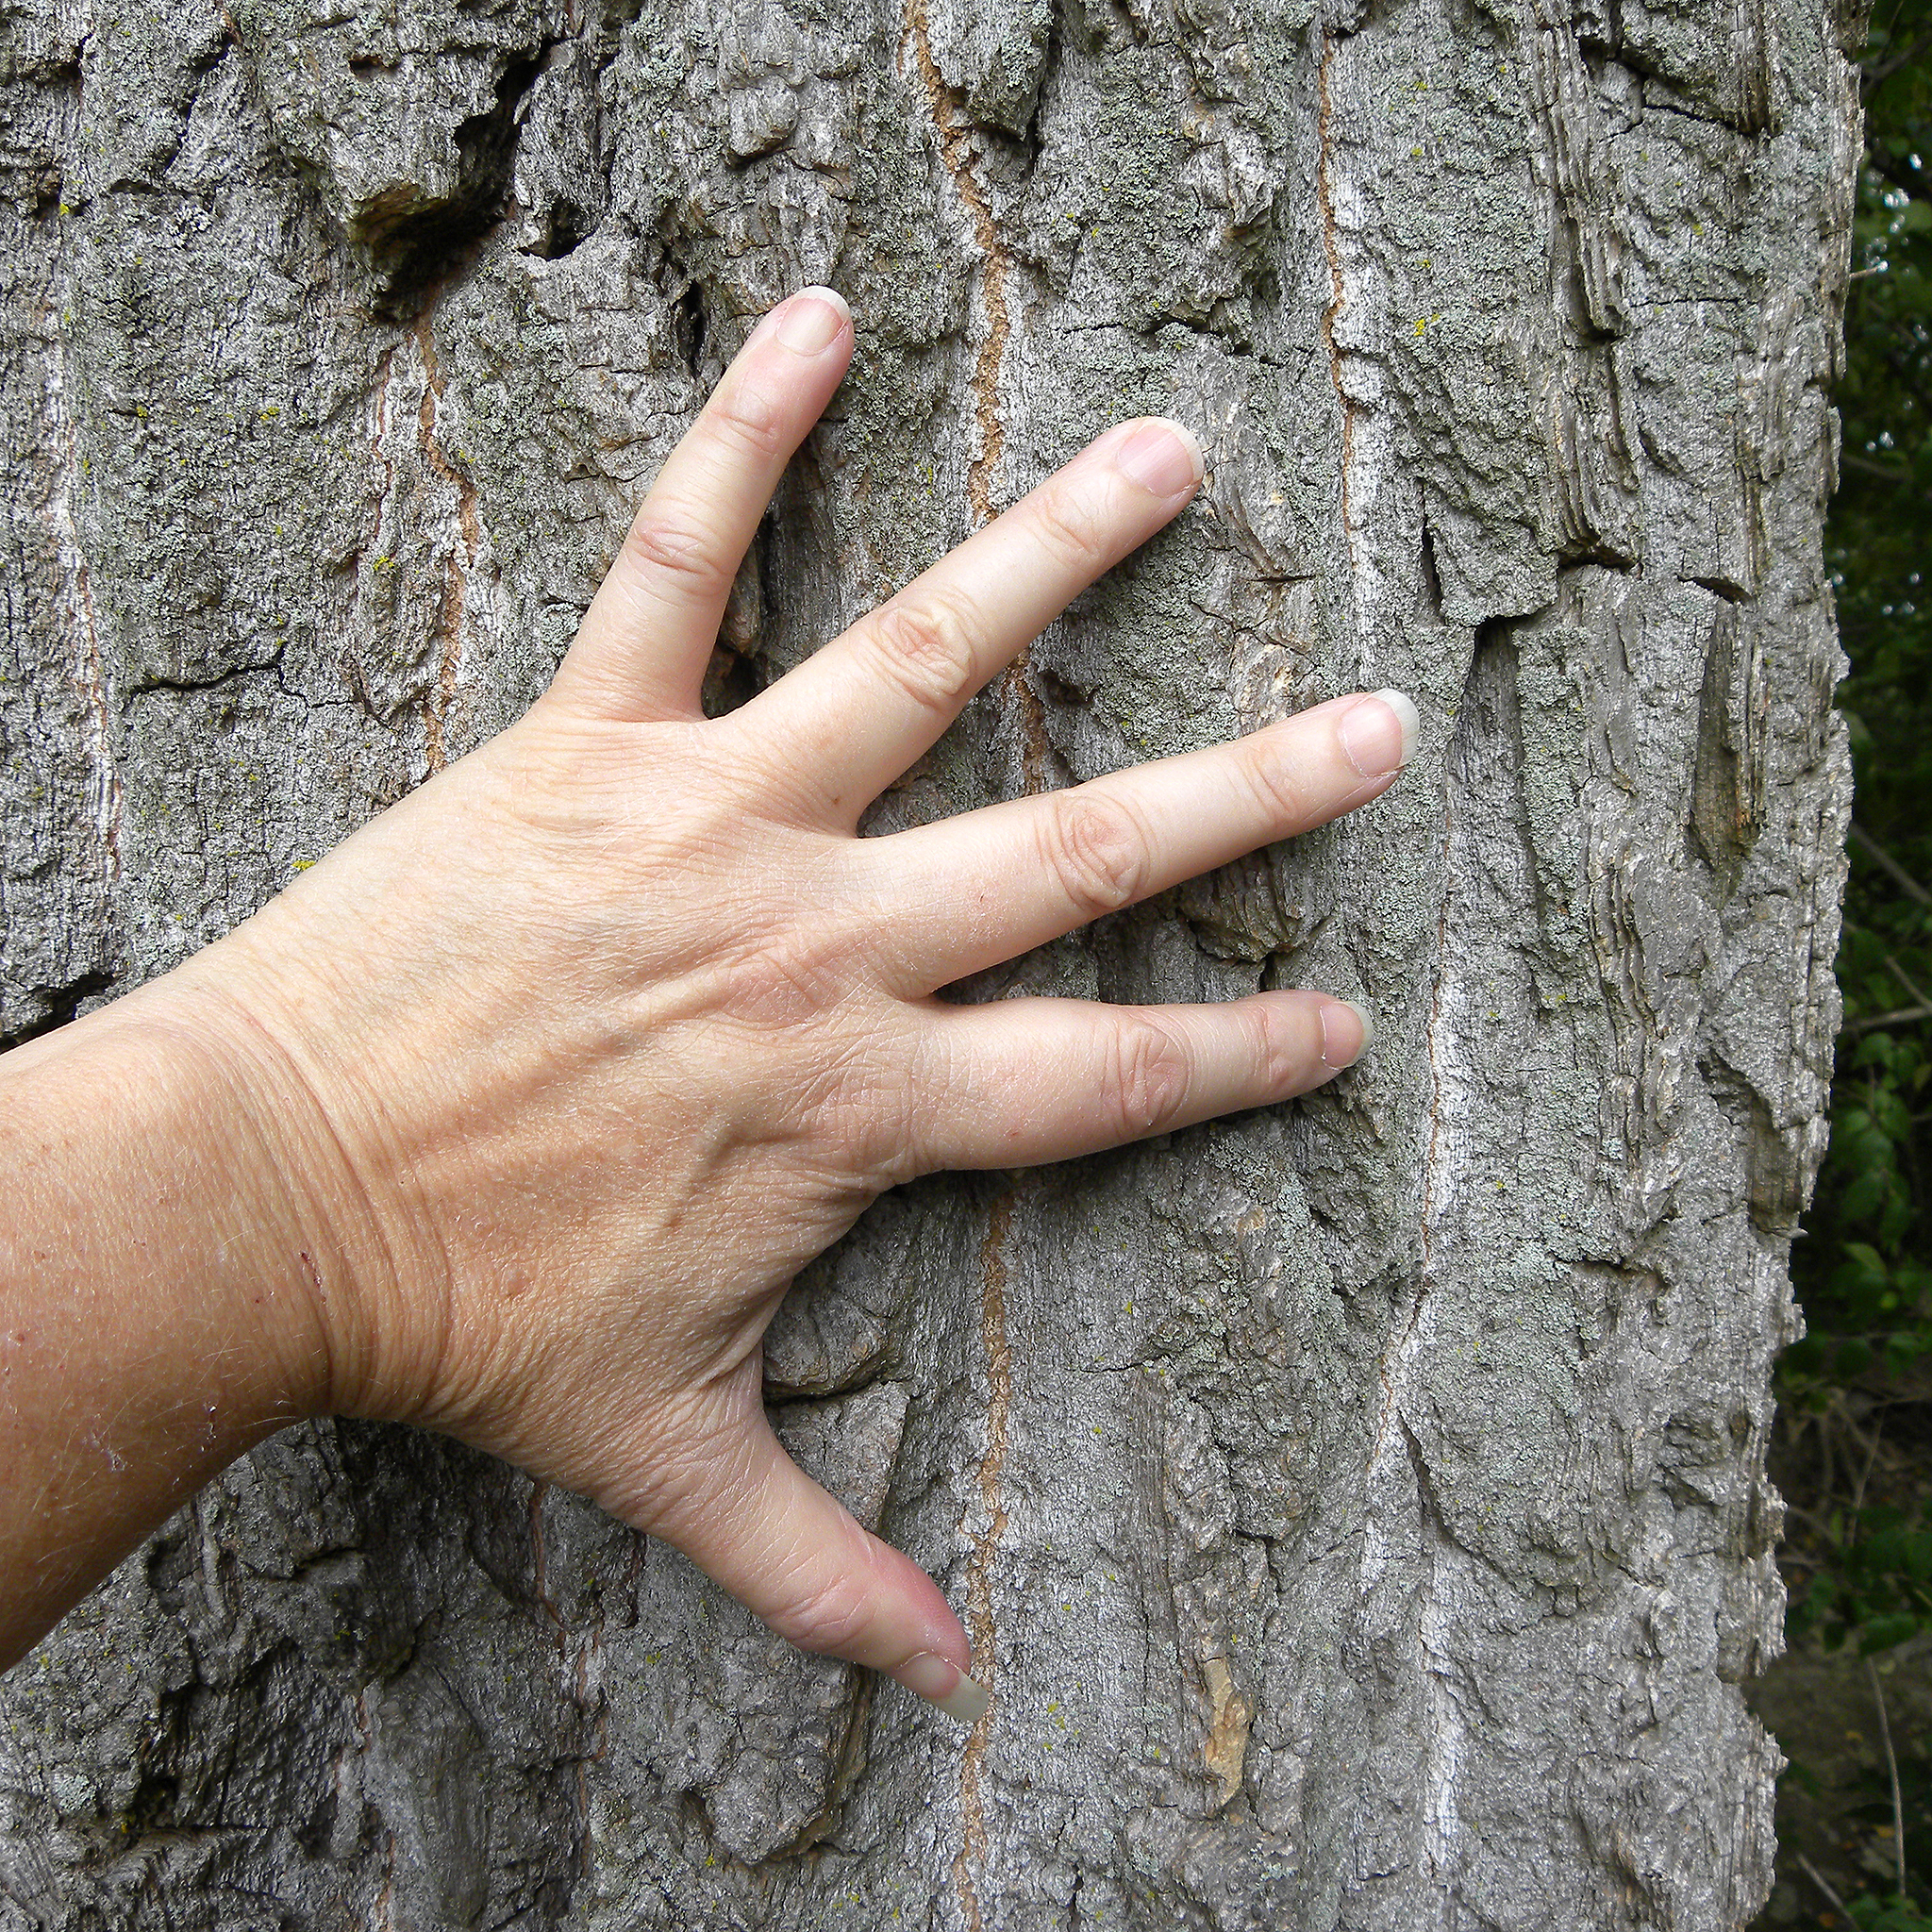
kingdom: Plantae
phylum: Tracheophyta
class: Magnoliopsida
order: Malpighiales
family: Salicaceae
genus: Populus
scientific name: Populus deltoides
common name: Eastern cottonwood
